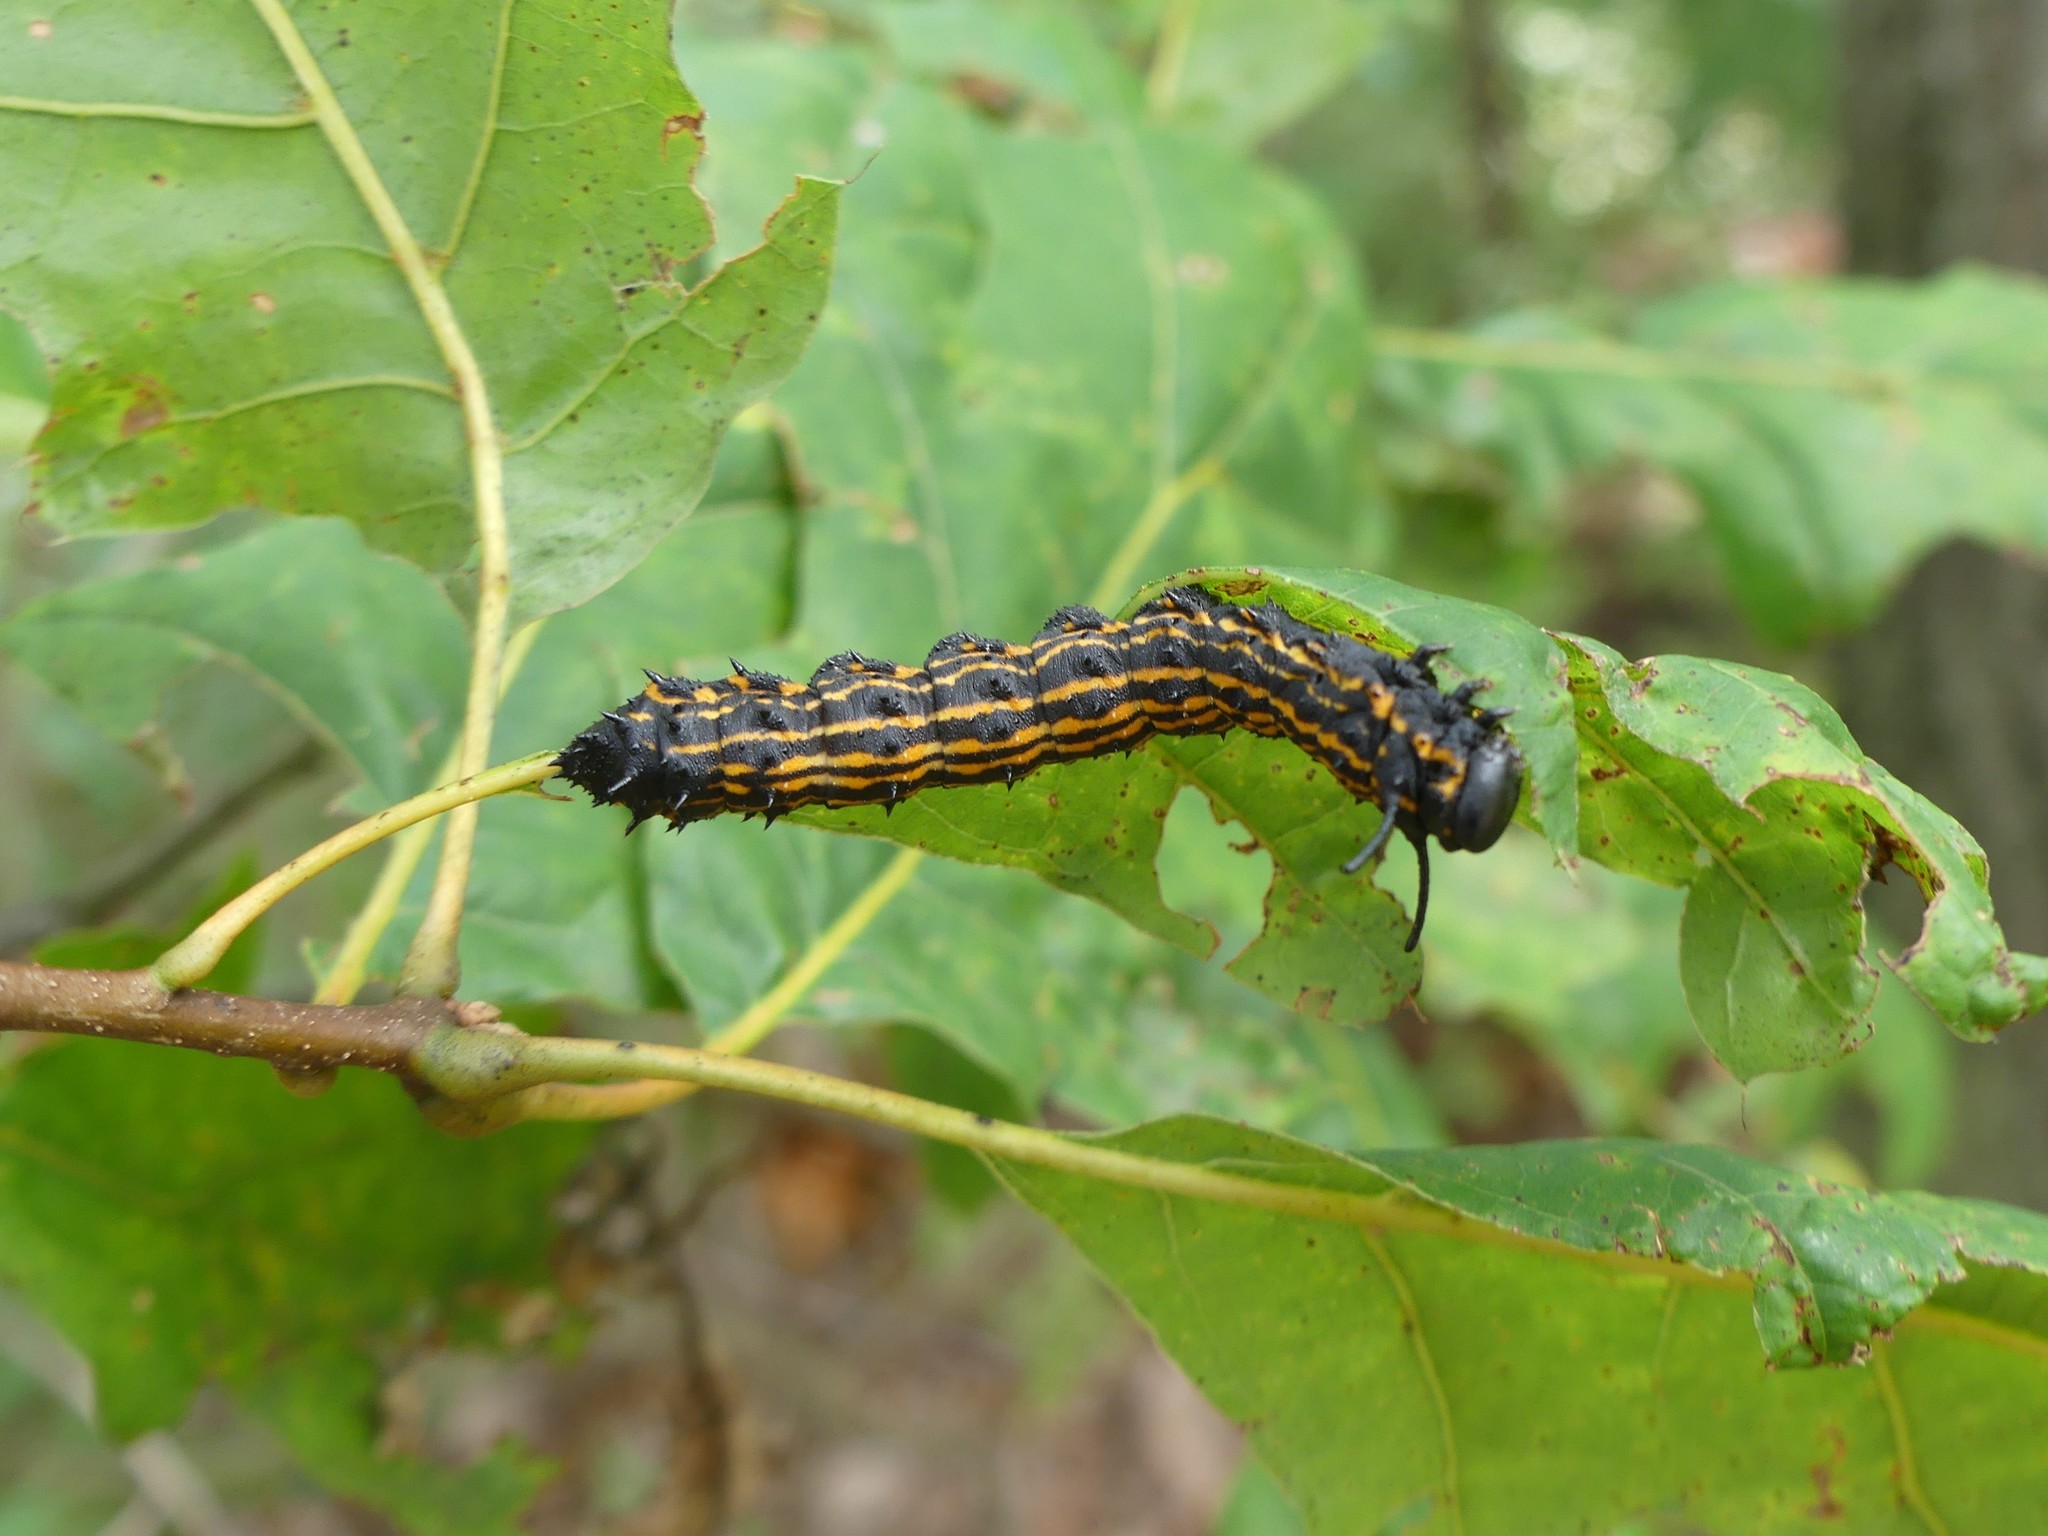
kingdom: Animalia
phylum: Arthropoda
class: Insecta
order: Lepidoptera
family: Saturniidae
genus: Anisota
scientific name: Anisota senatoria
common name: Orange-striped oakworm moth
